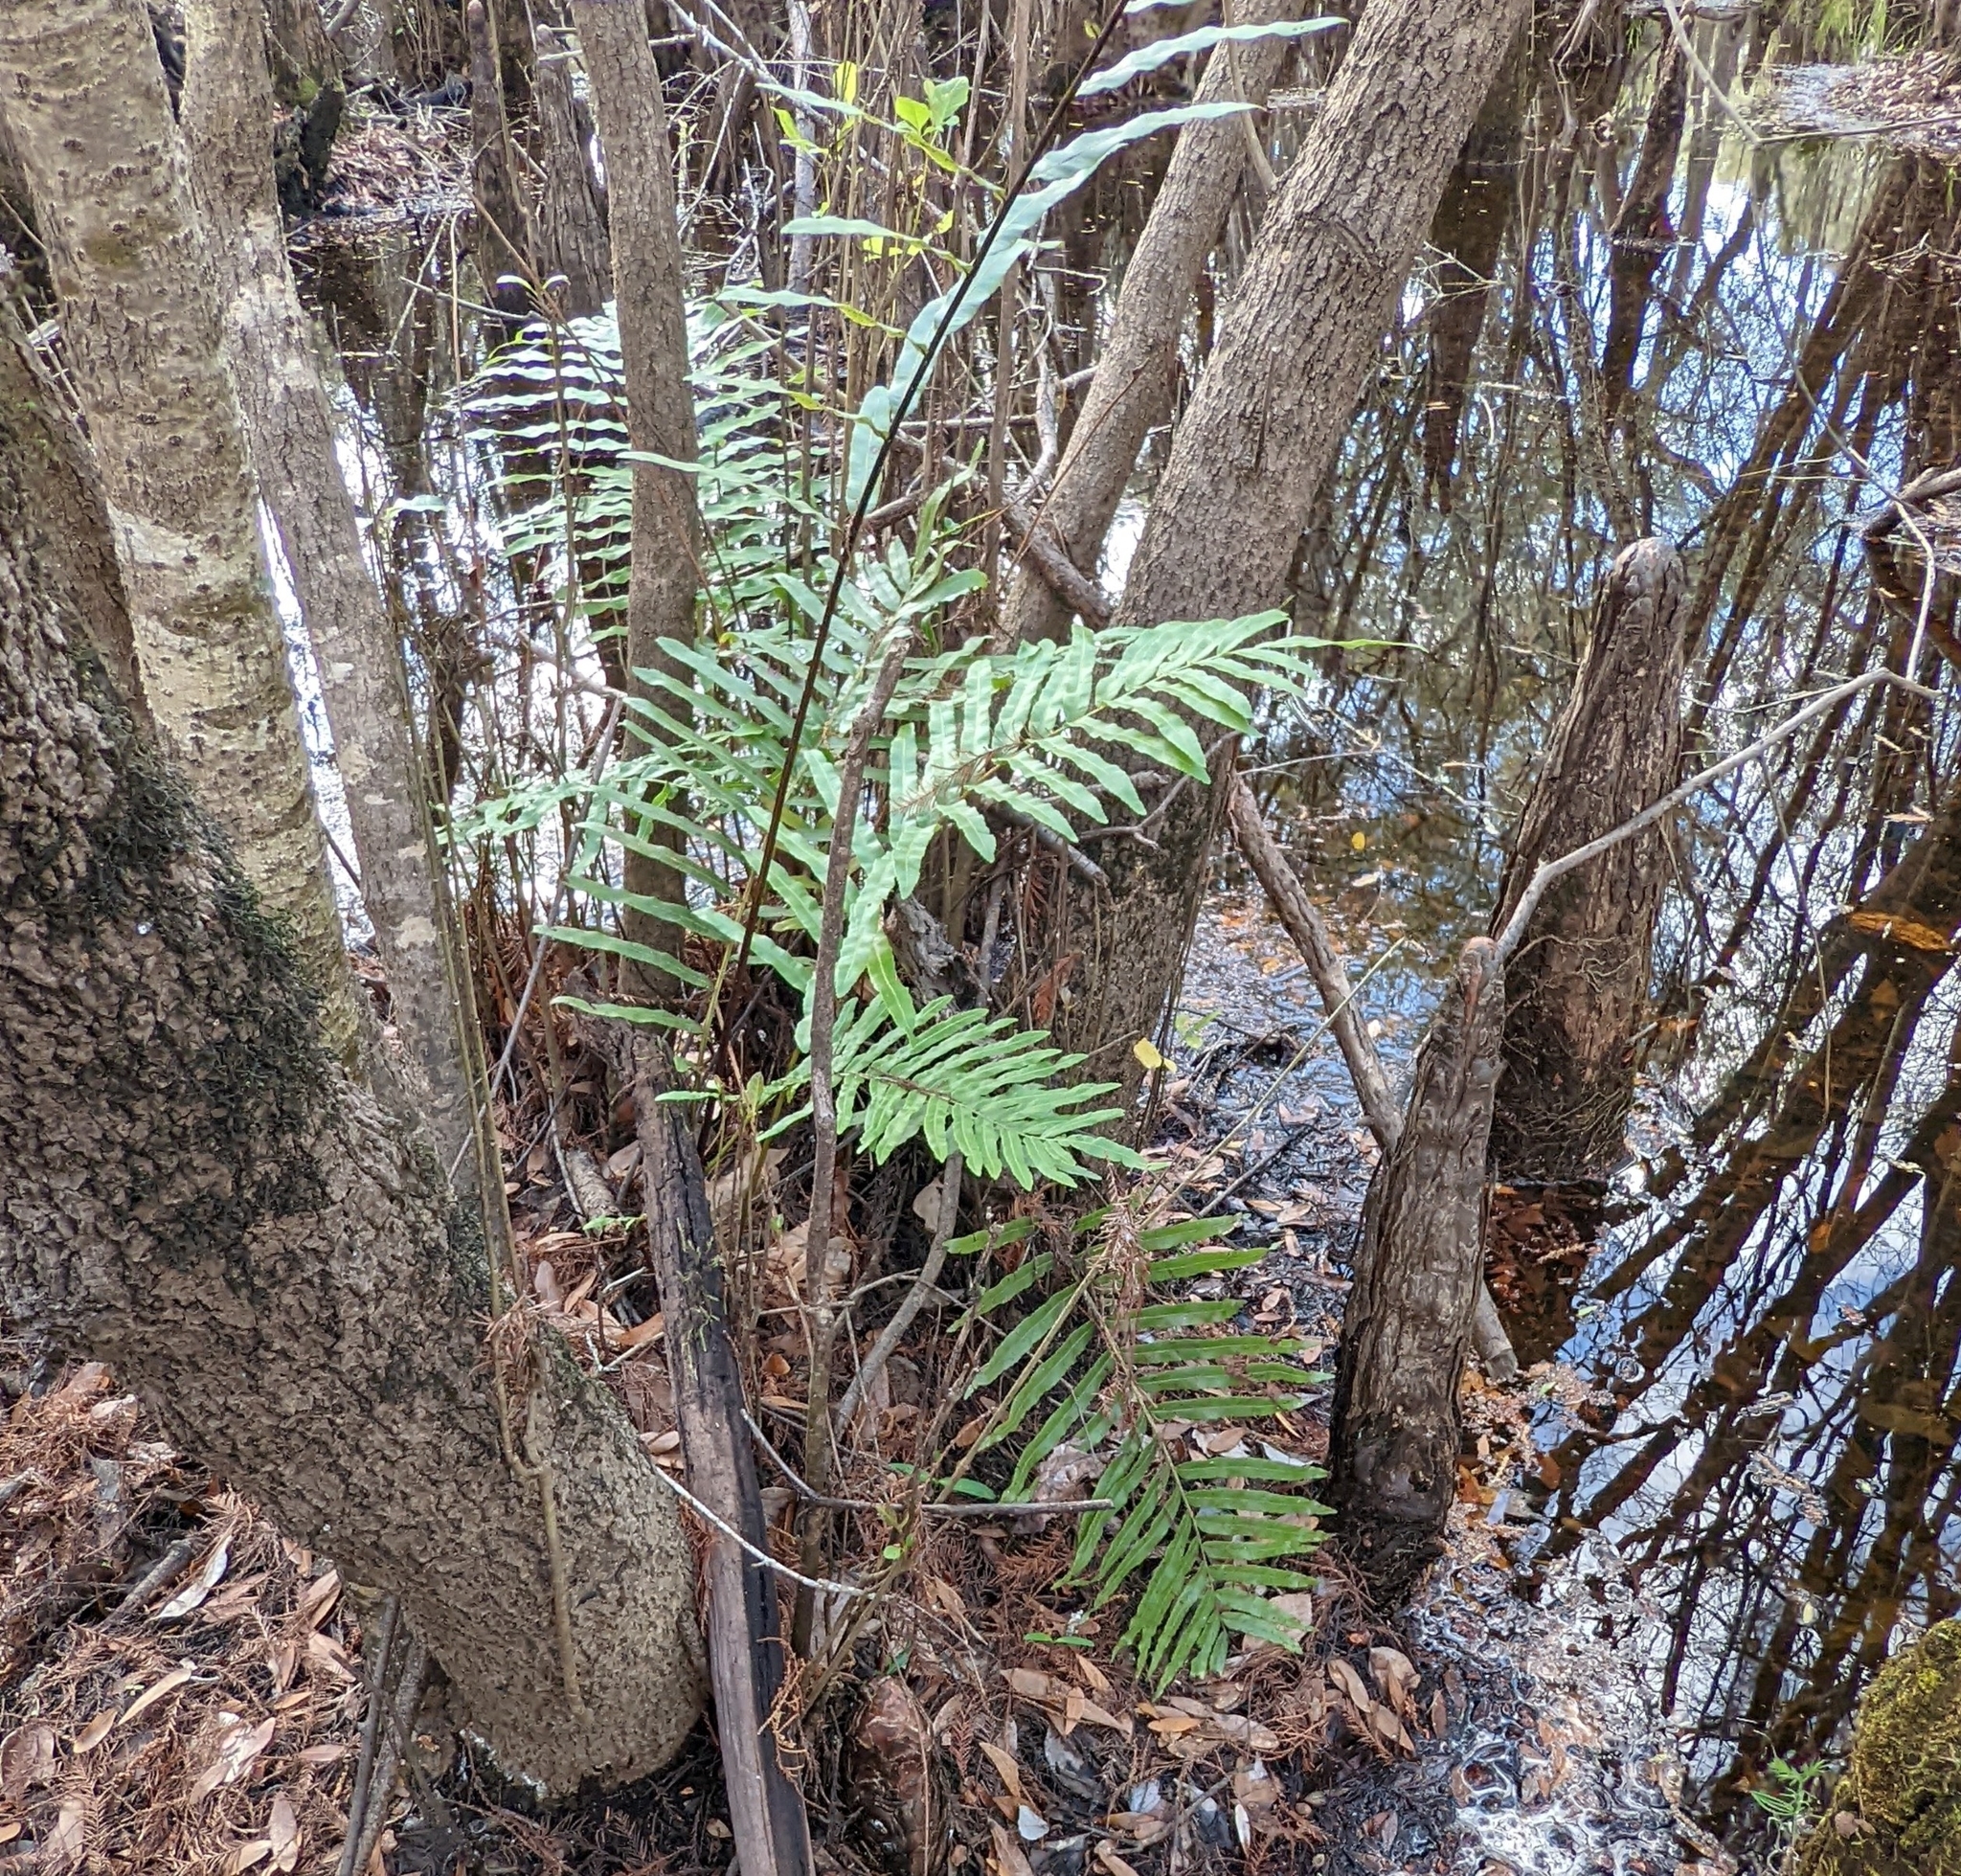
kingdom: Plantae
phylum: Tracheophyta
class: Polypodiopsida
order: Polypodiales
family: Blechnaceae
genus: Telmatoblechnum
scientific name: Telmatoblechnum serrulatum
